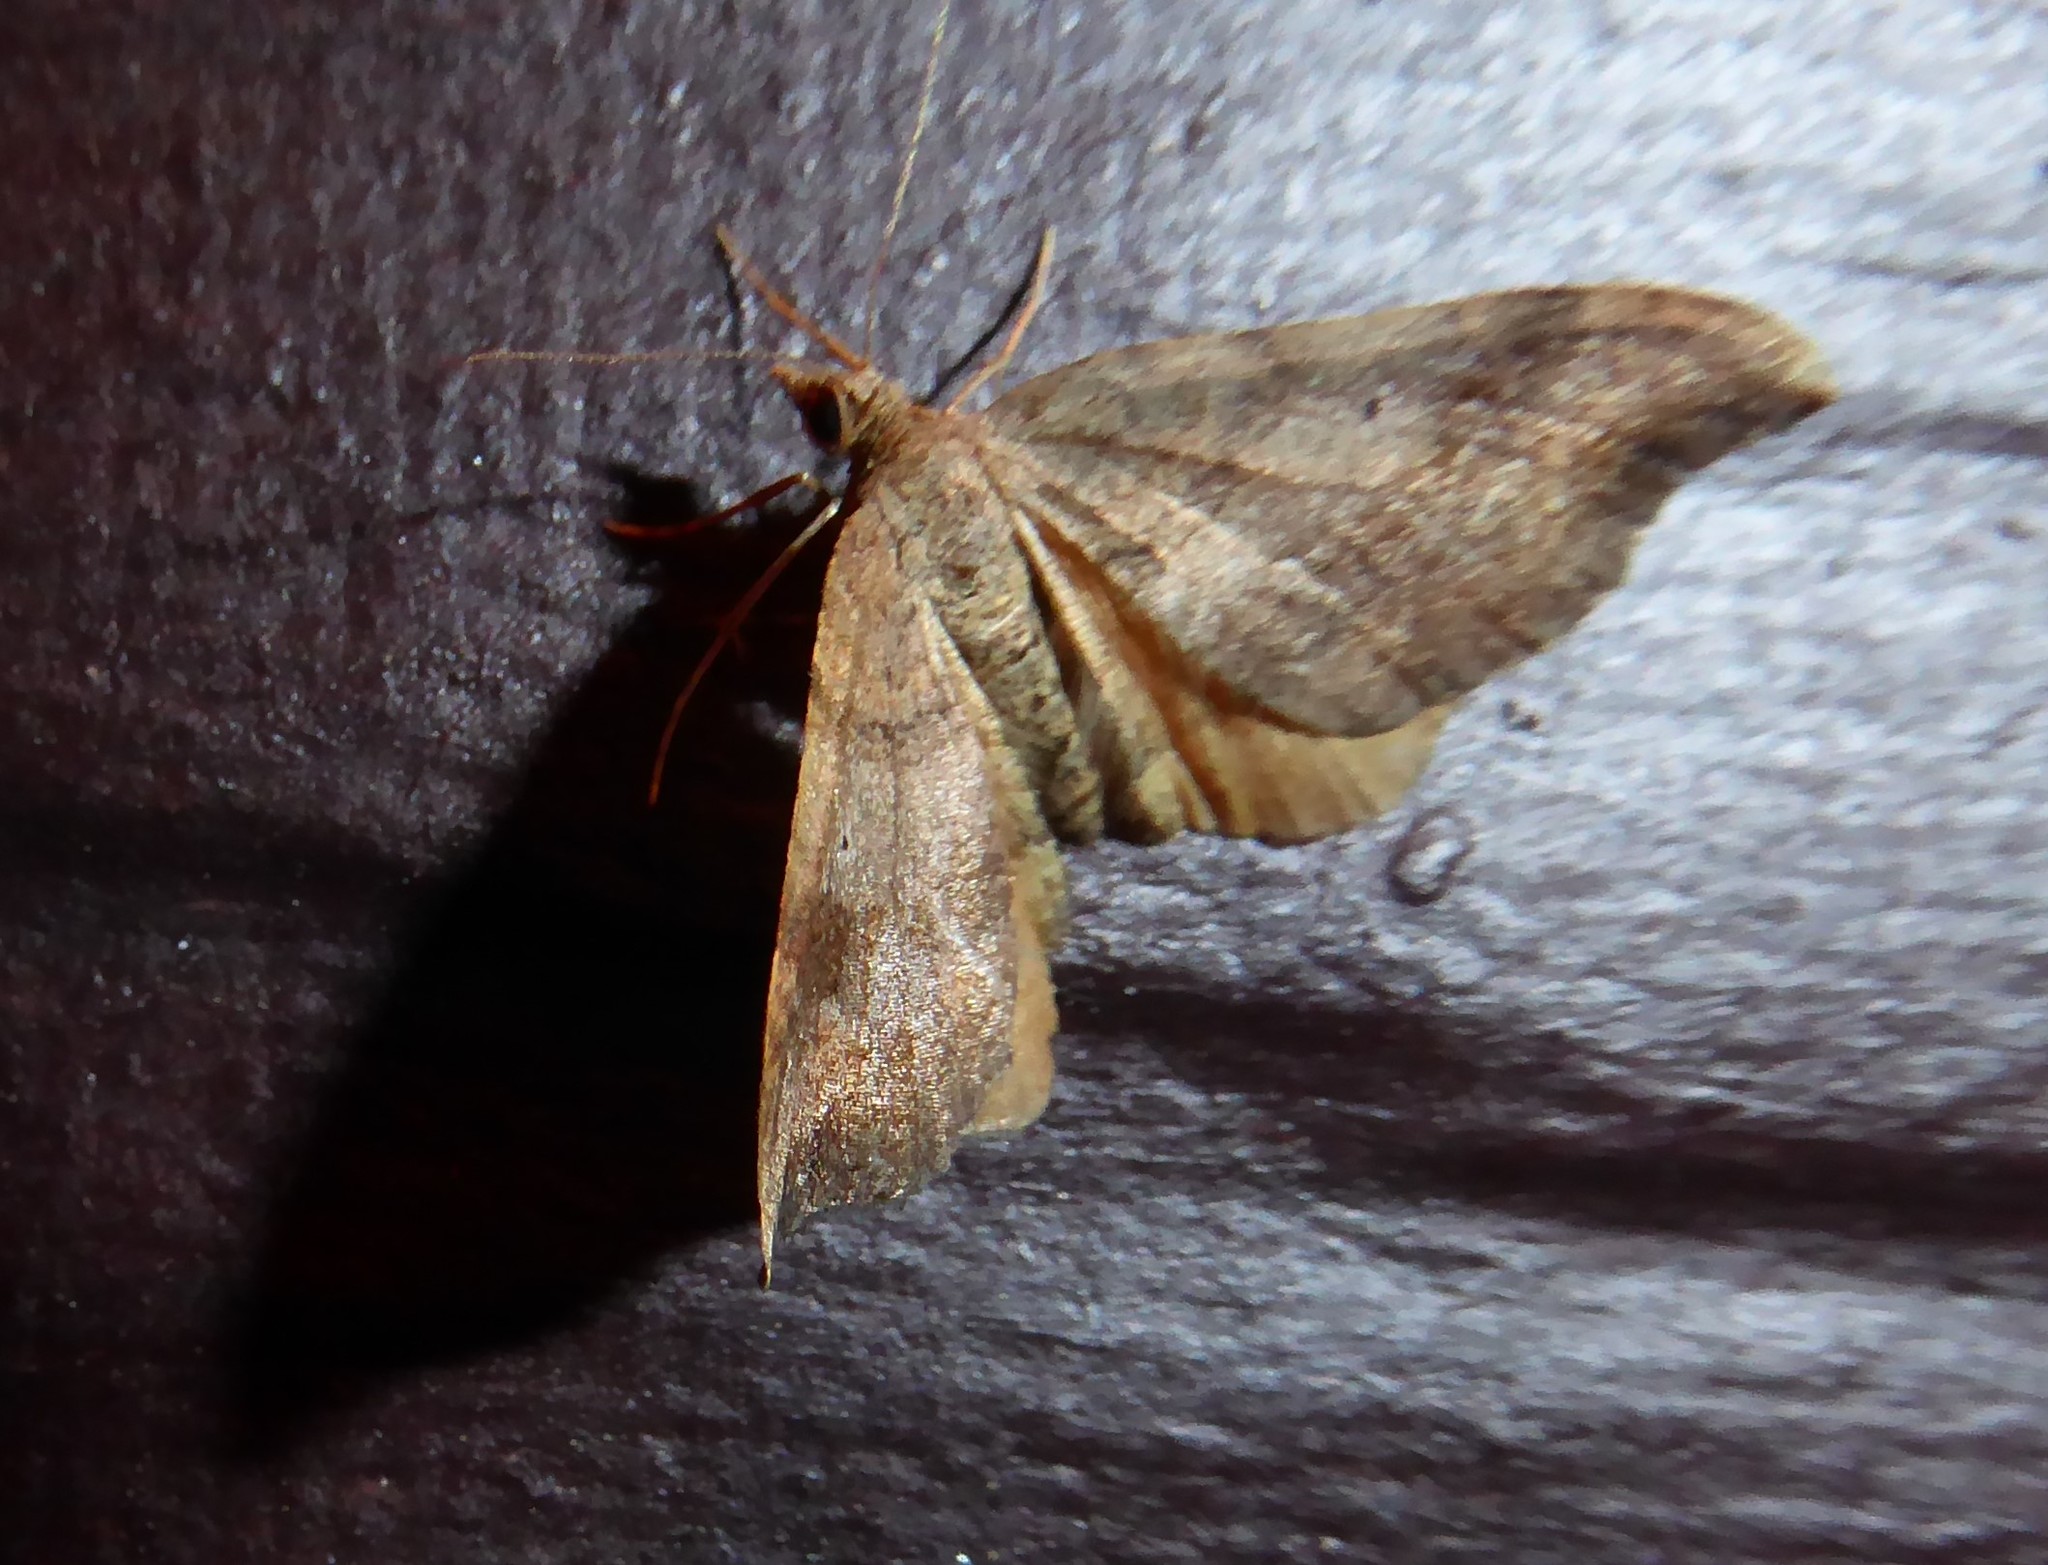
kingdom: Animalia
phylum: Arthropoda
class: Insecta
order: Lepidoptera
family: Geometridae
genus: Homodotis
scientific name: Homodotis megaspilata
